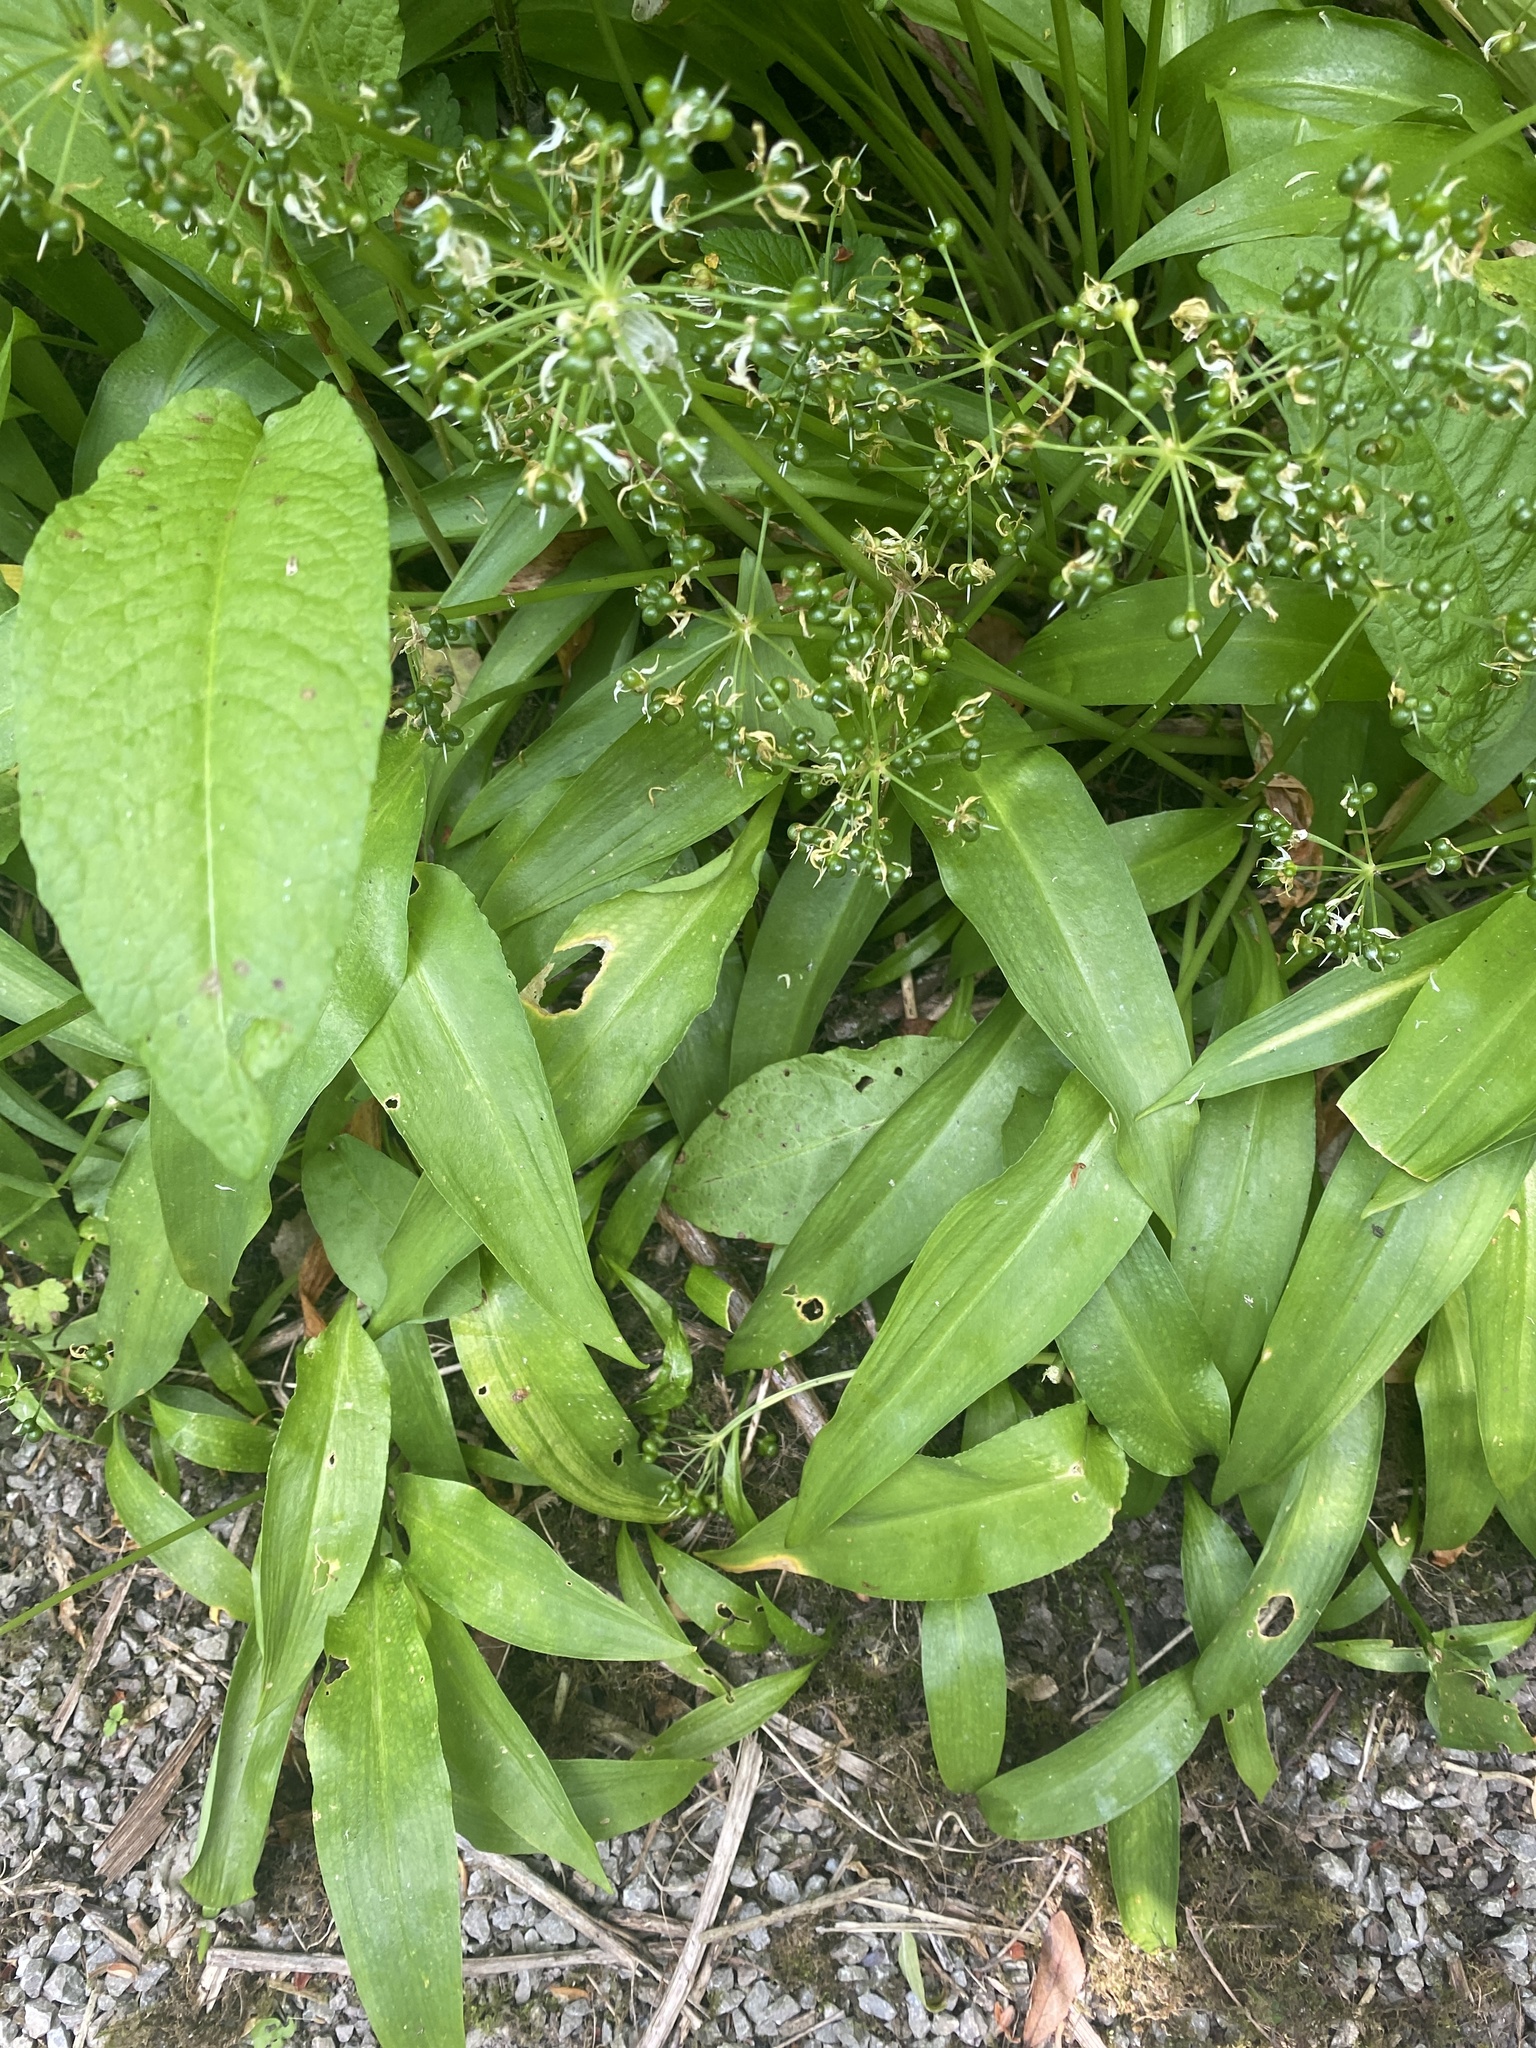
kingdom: Plantae
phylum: Tracheophyta
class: Liliopsida
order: Asparagales
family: Amaryllidaceae
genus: Allium
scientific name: Allium ursinum
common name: Ramsons
